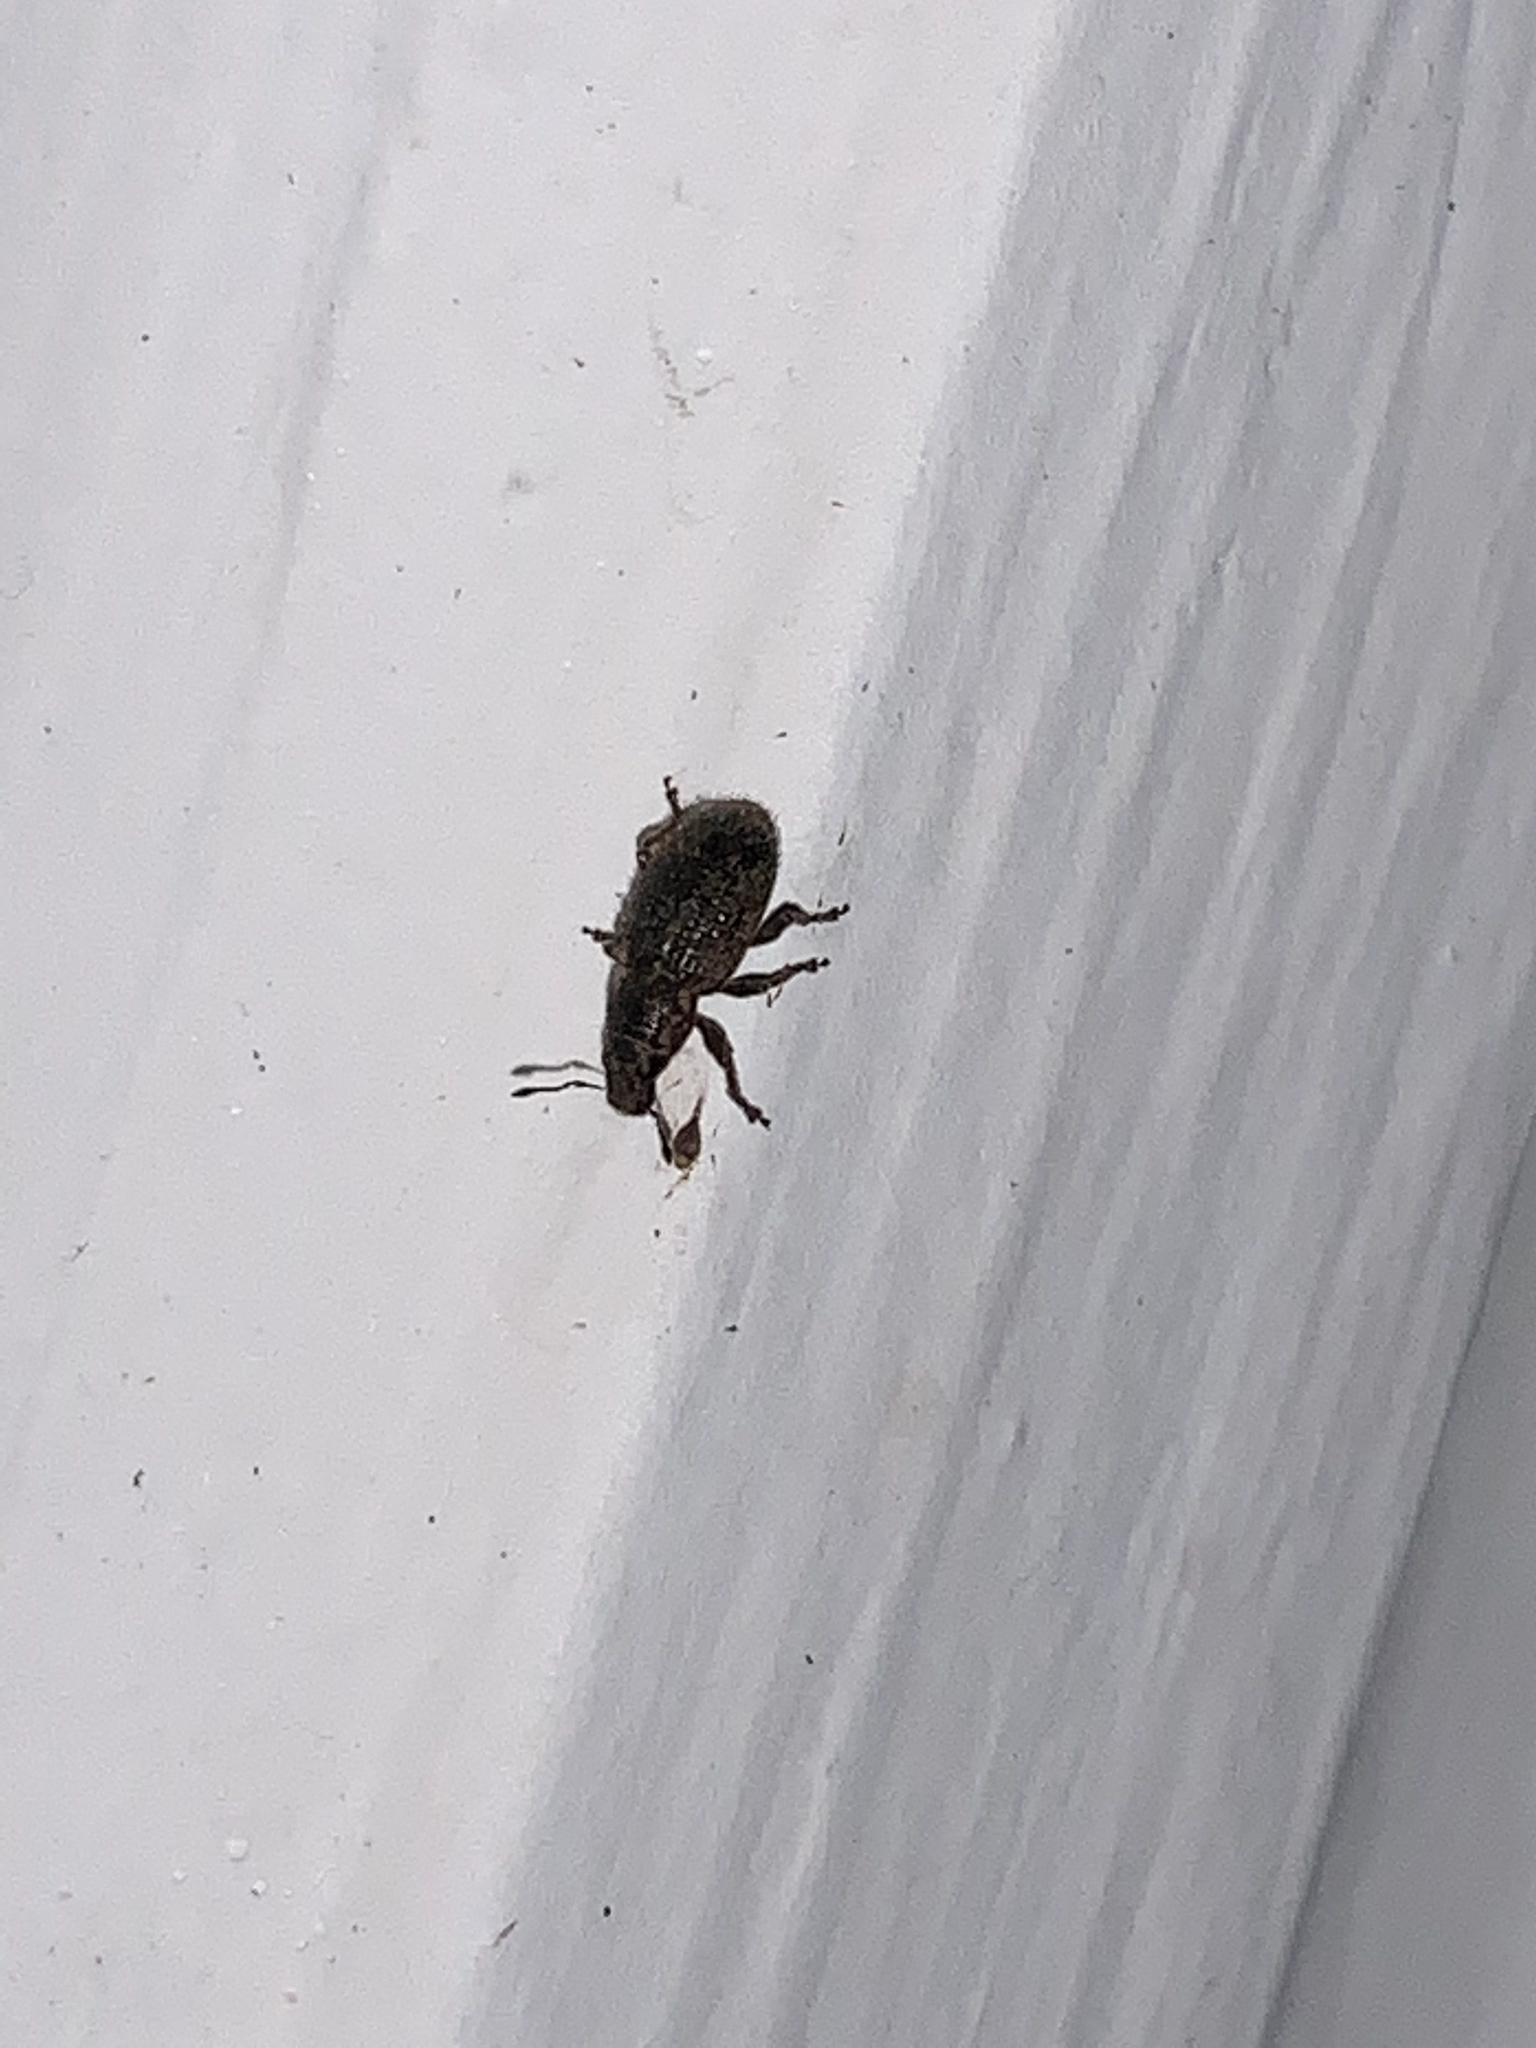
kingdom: Animalia
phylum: Arthropoda
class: Insecta
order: Coleoptera
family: Curculionidae
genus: Sitona
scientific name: Sitona hispidulus
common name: Clover weevil
